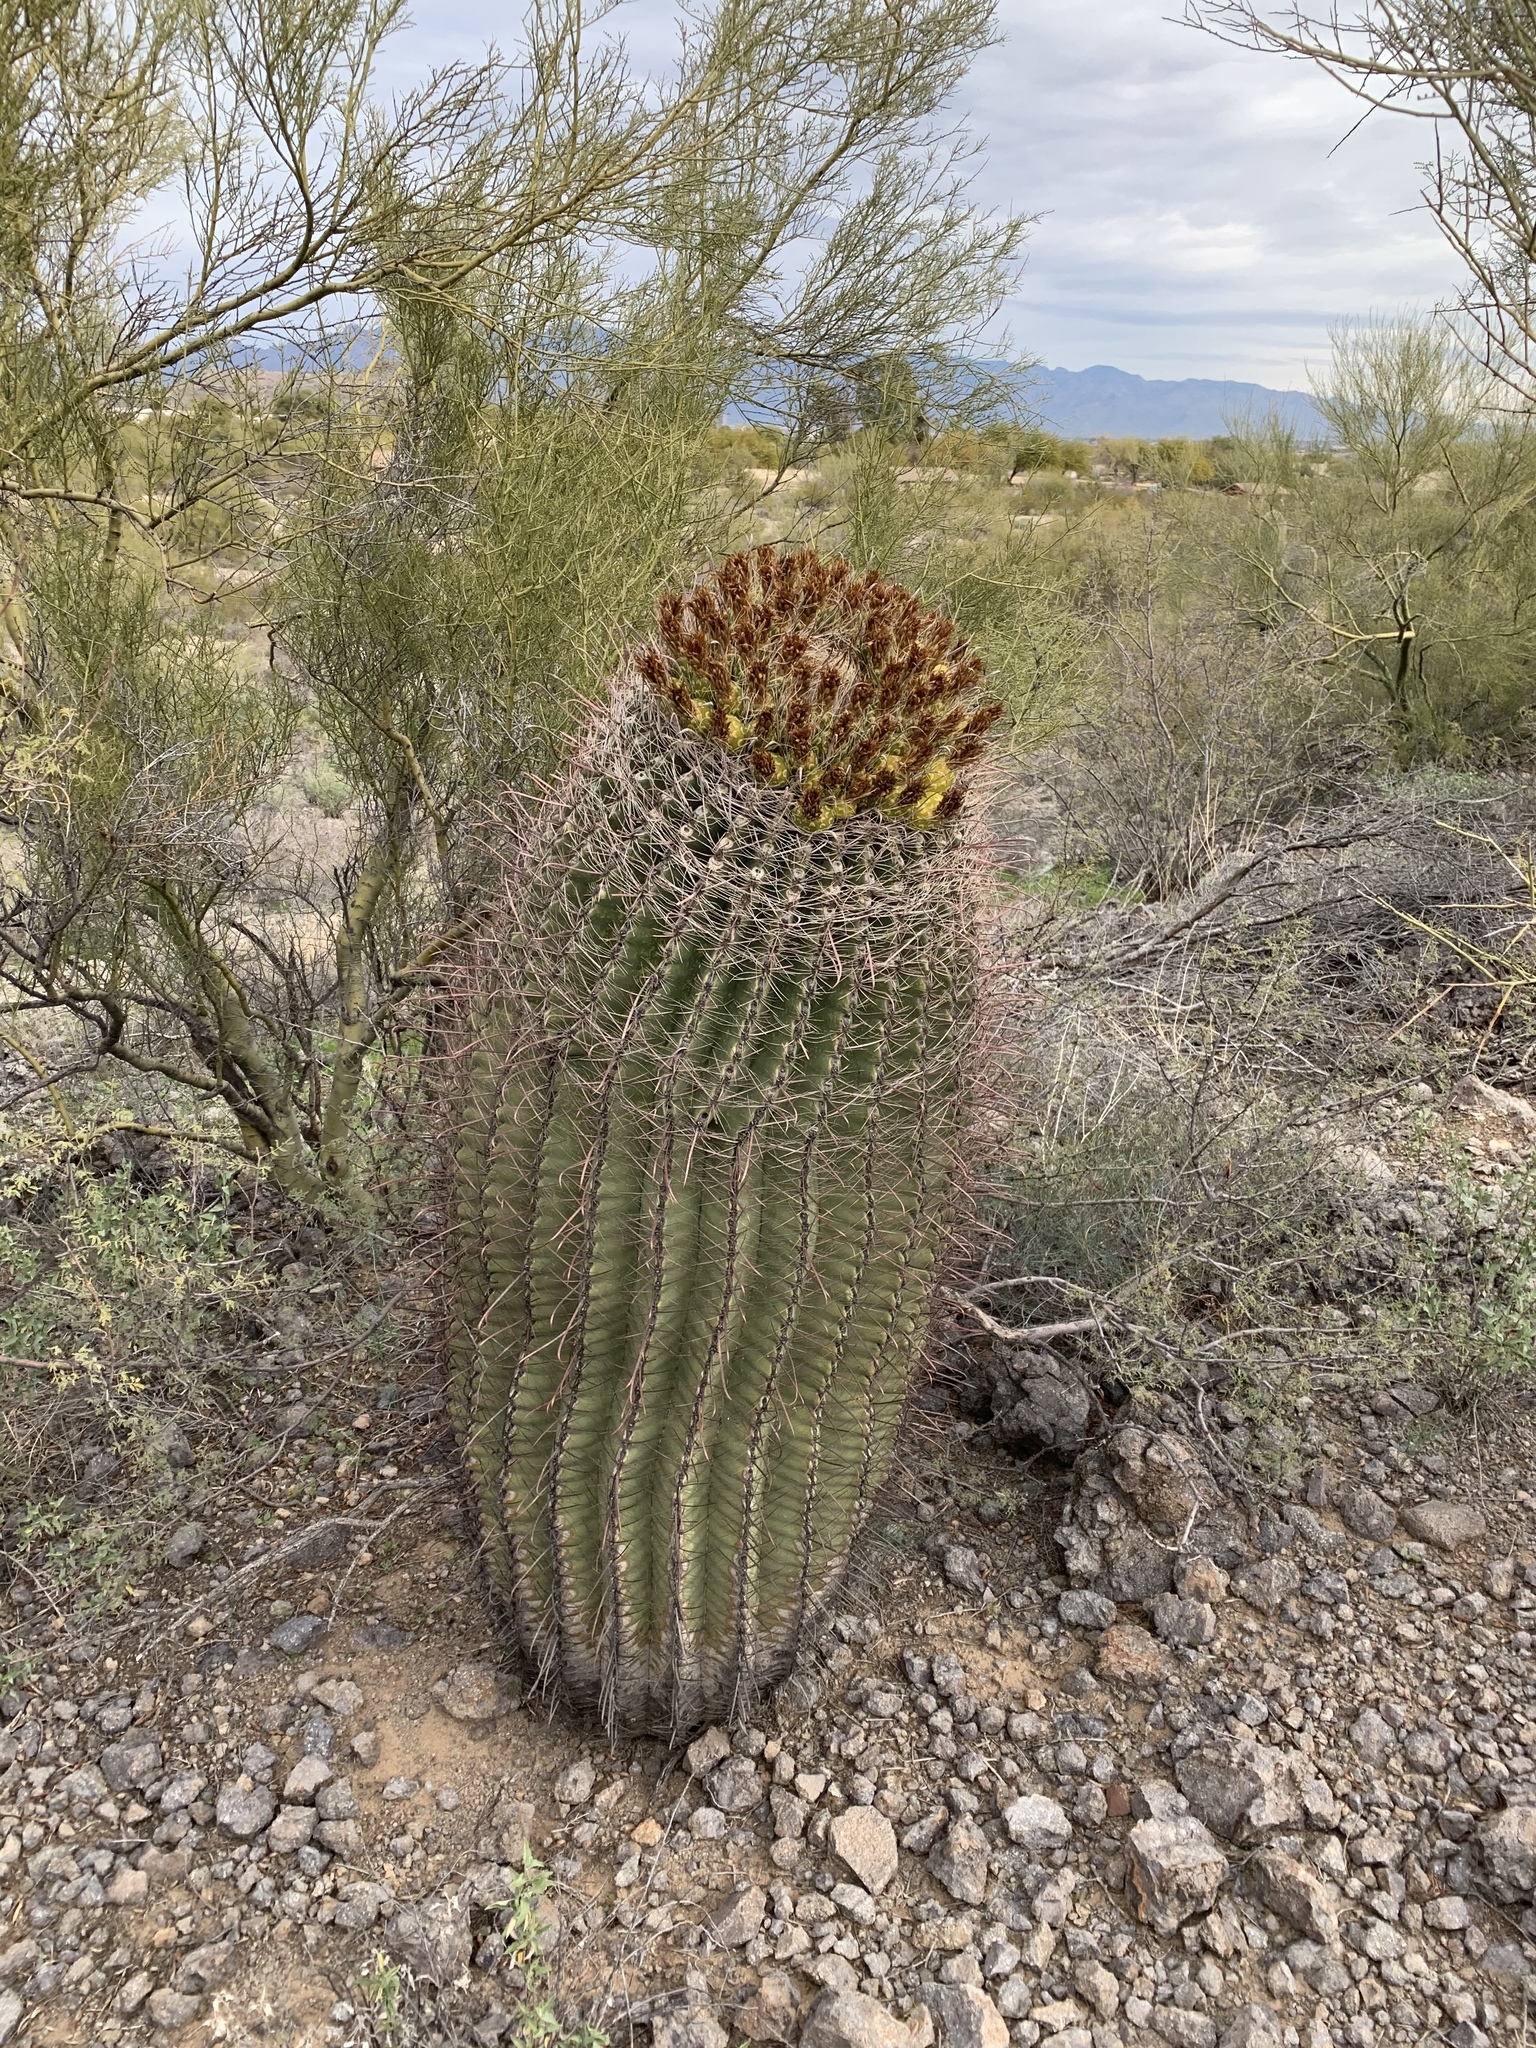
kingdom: Plantae
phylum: Tracheophyta
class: Magnoliopsida
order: Caryophyllales
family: Cactaceae
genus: Ferocactus
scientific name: Ferocactus wislizeni
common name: Candy barrel cactus
